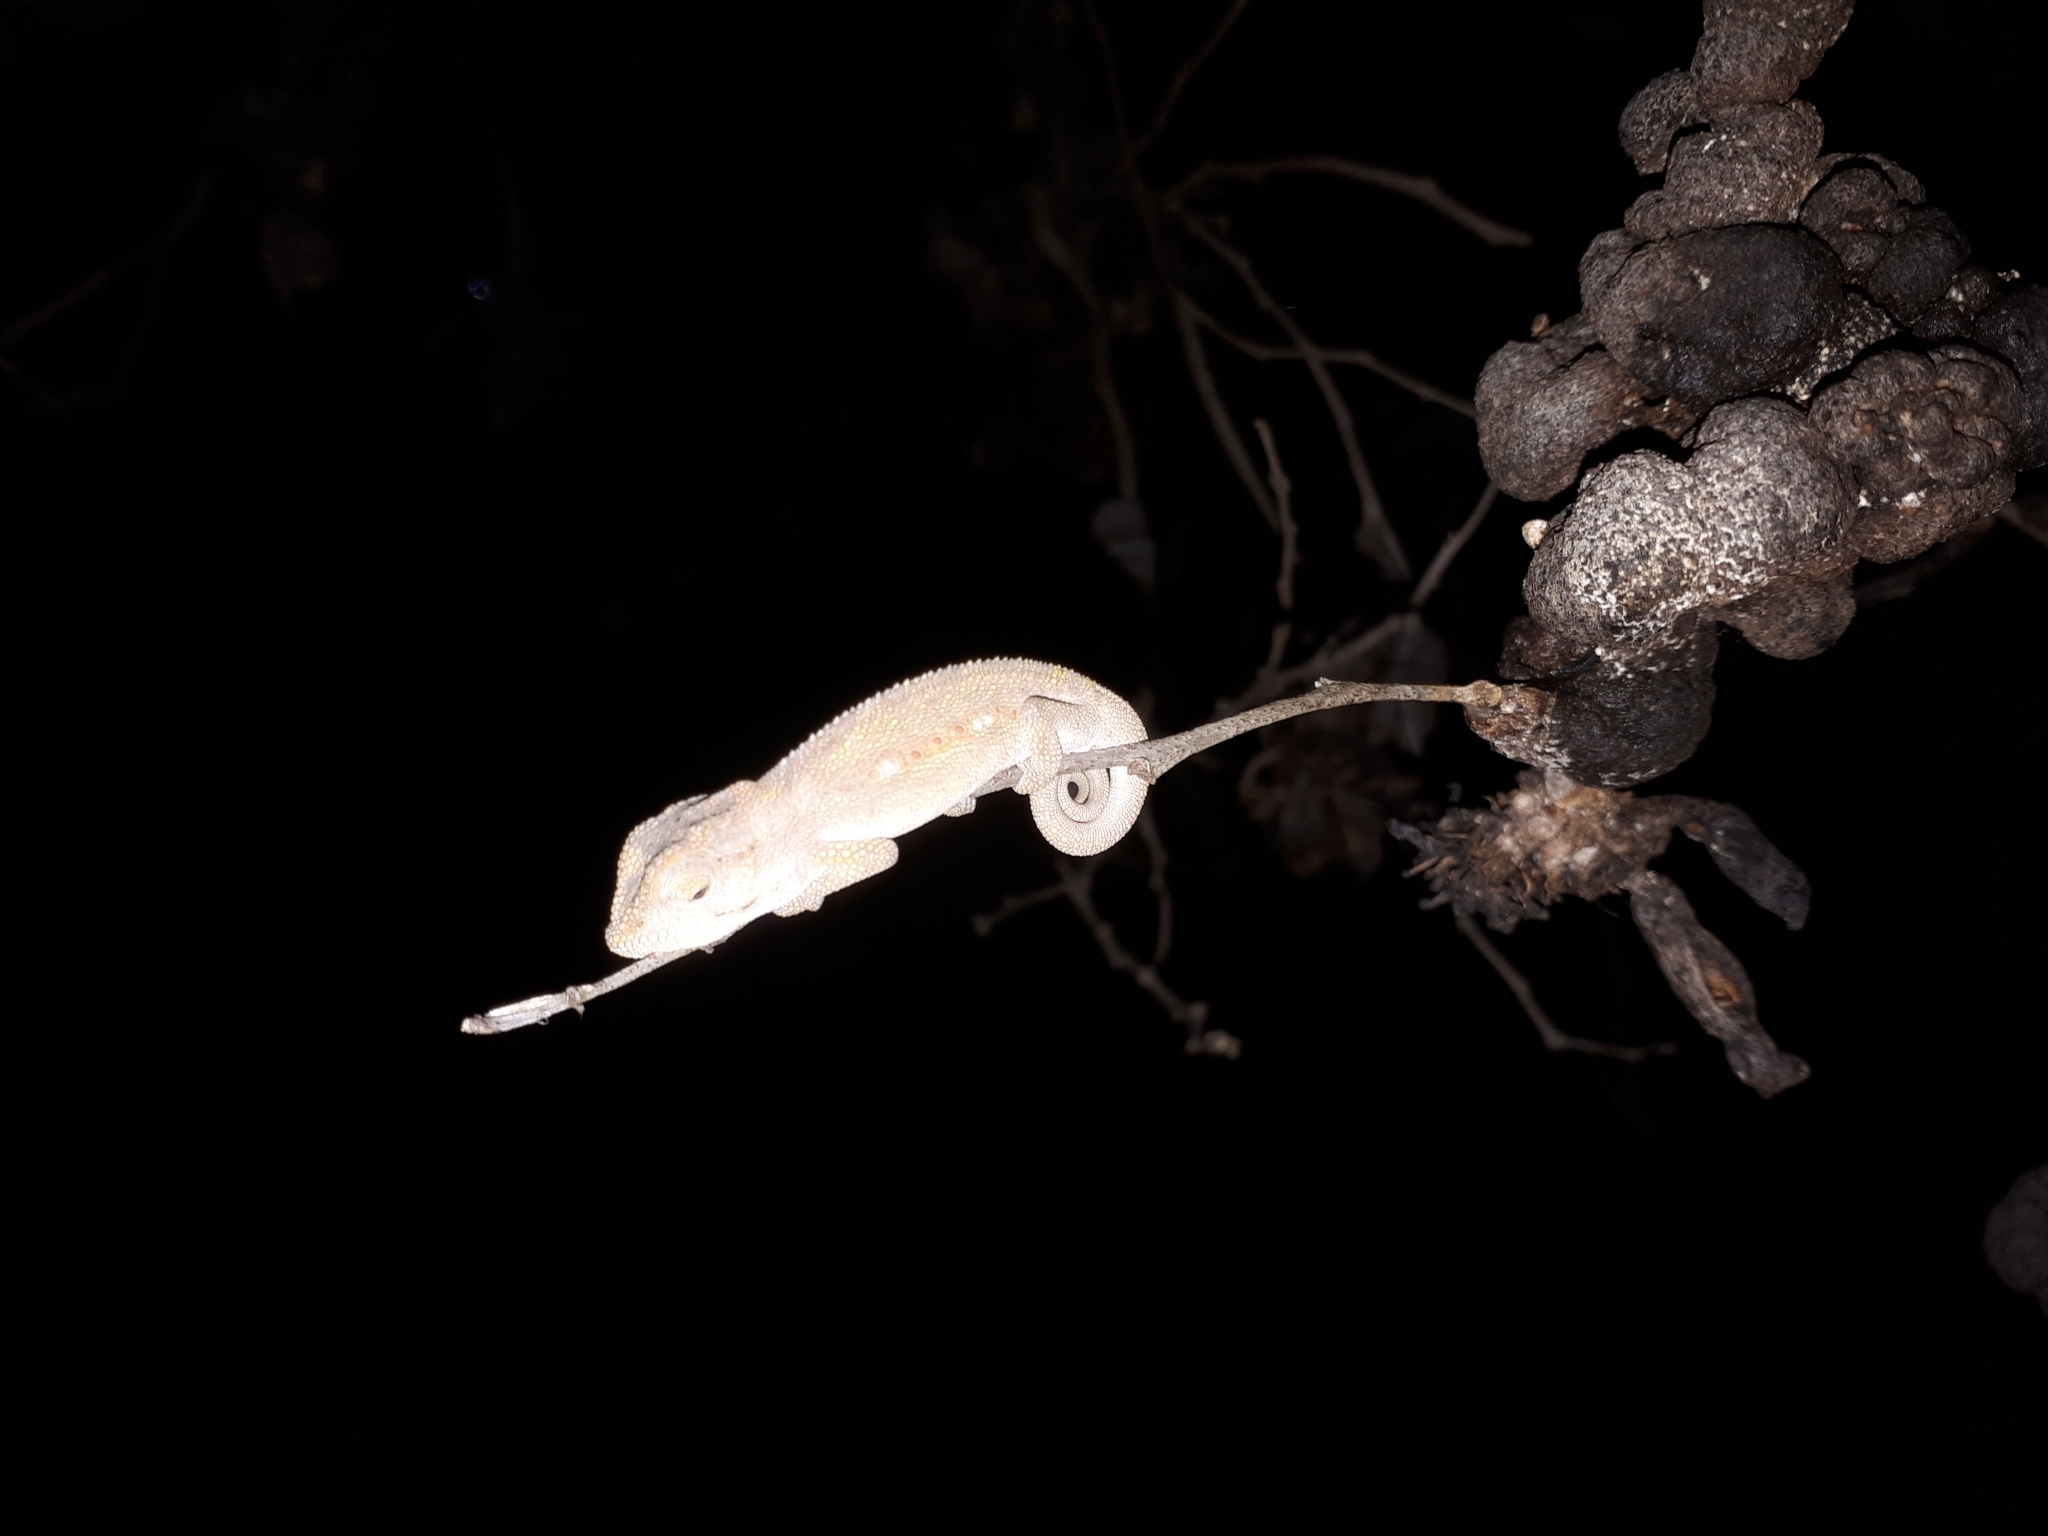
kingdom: Animalia
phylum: Chordata
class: Squamata
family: Chamaeleonidae
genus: Bradypodion
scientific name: Bradypodion pumilum
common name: Cape dwarf chameleon
